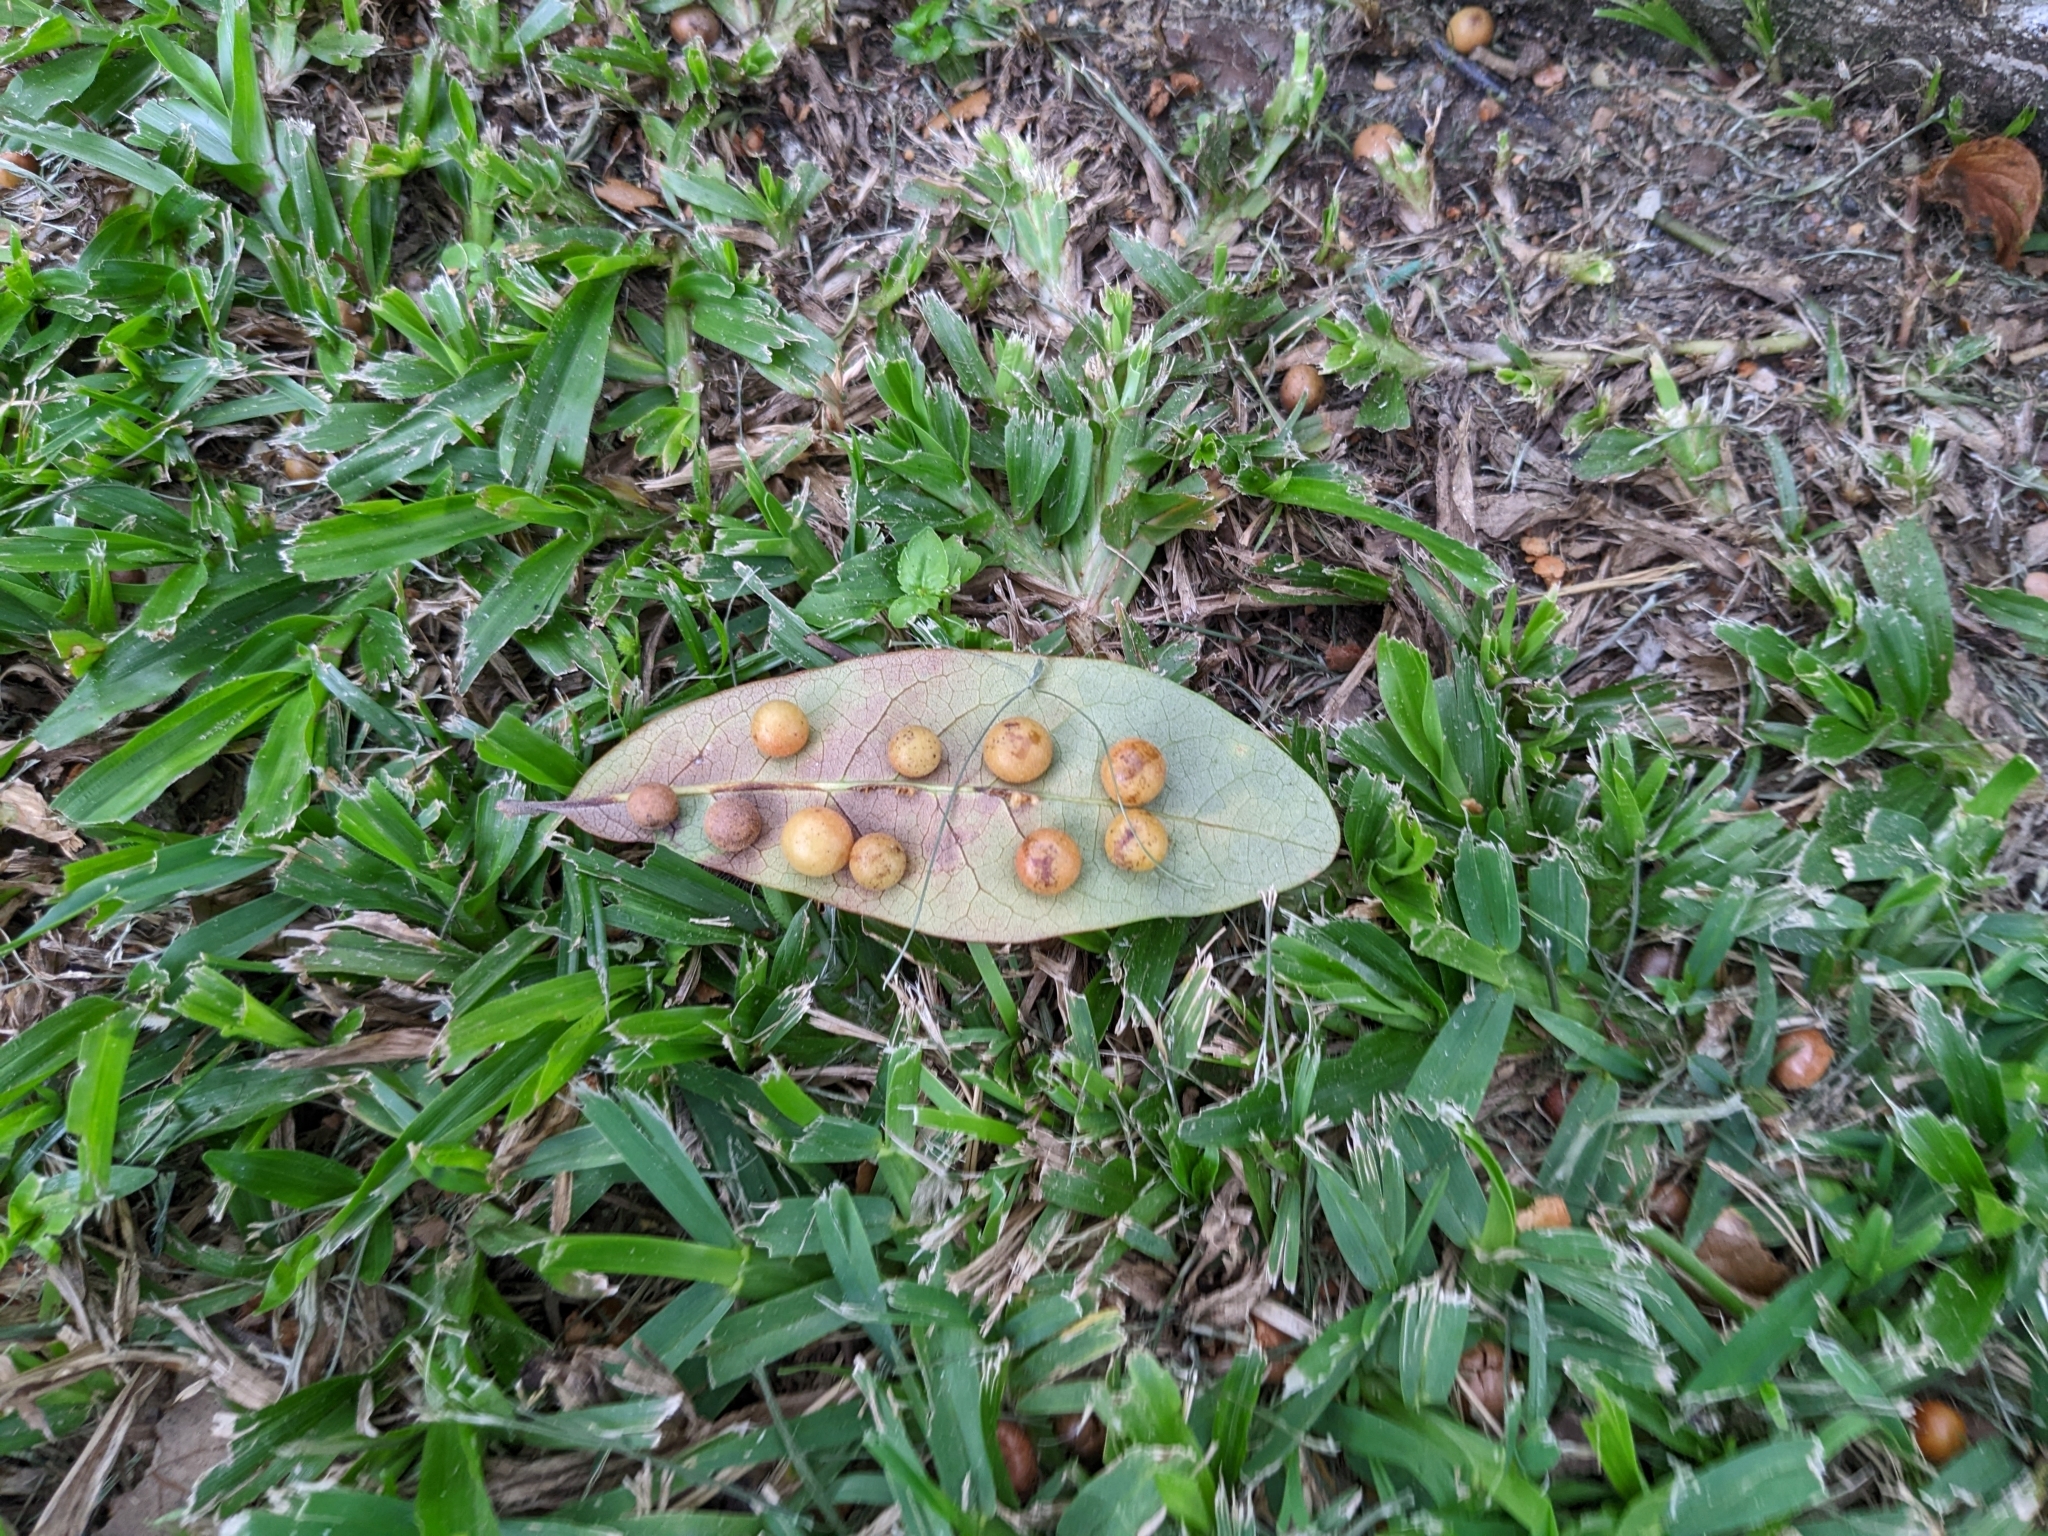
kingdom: Animalia
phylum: Arthropoda
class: Insecta
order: Hymenoptera
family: Cynipidae
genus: Belonocnema
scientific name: Belonocnema kinseyi
